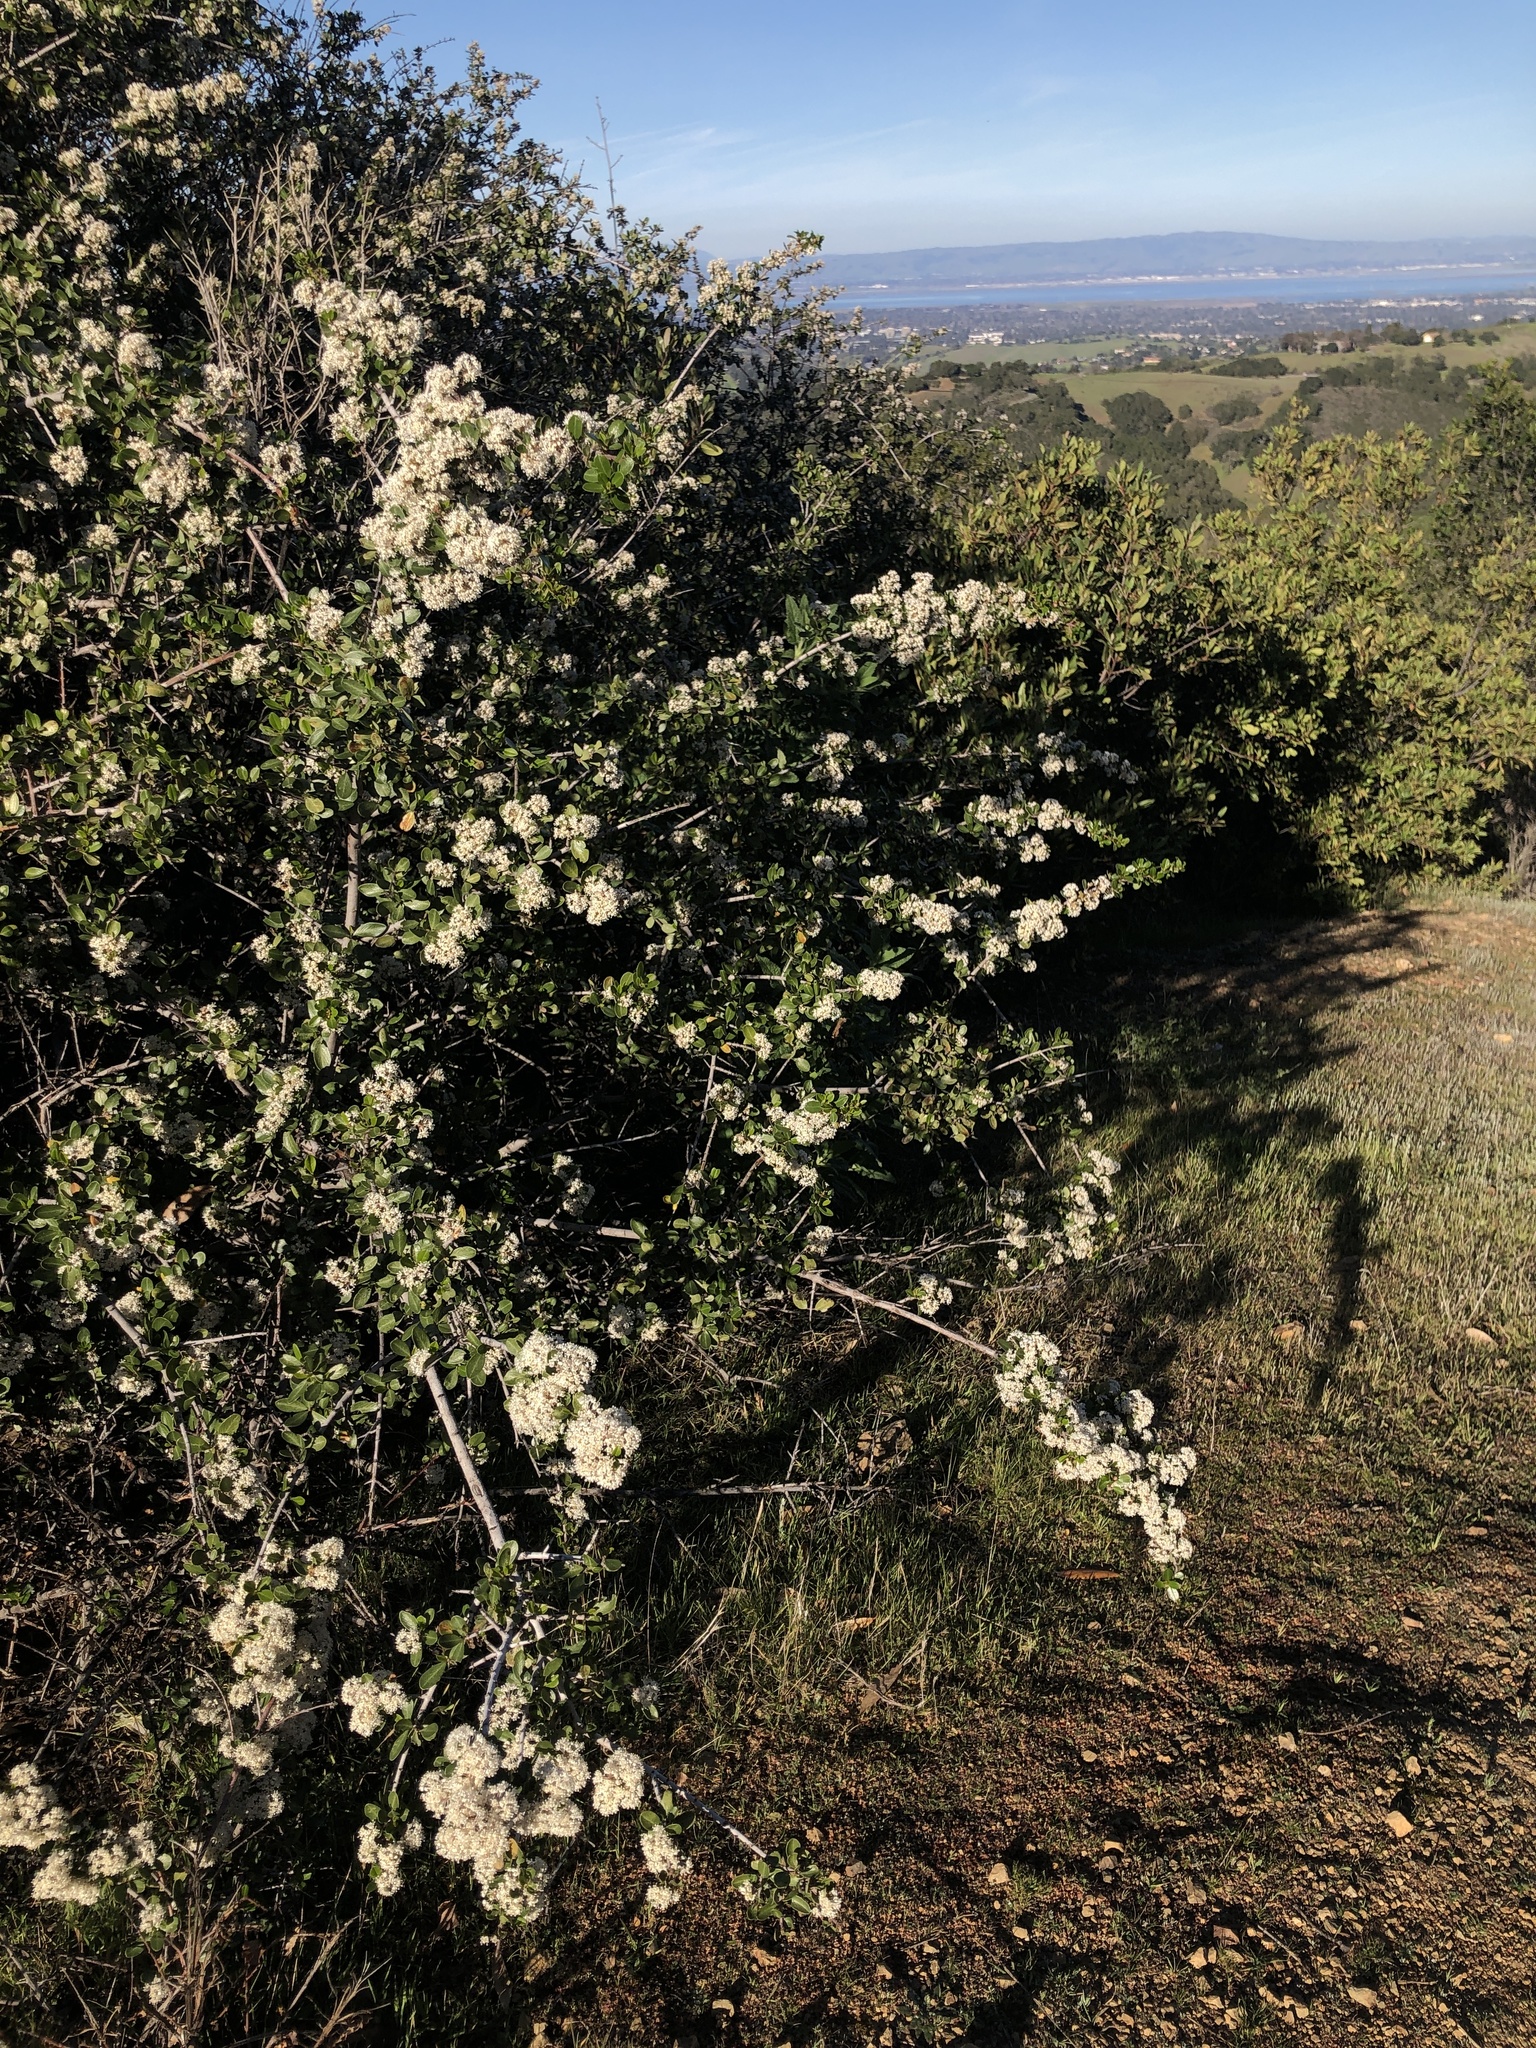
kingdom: Plantae
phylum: Tracheophyta
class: Magnoliopsida
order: Rosales
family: Rhamnaceae
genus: Ceanothus
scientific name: Ceanothus cuneatus
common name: Cuneate ceanothus
